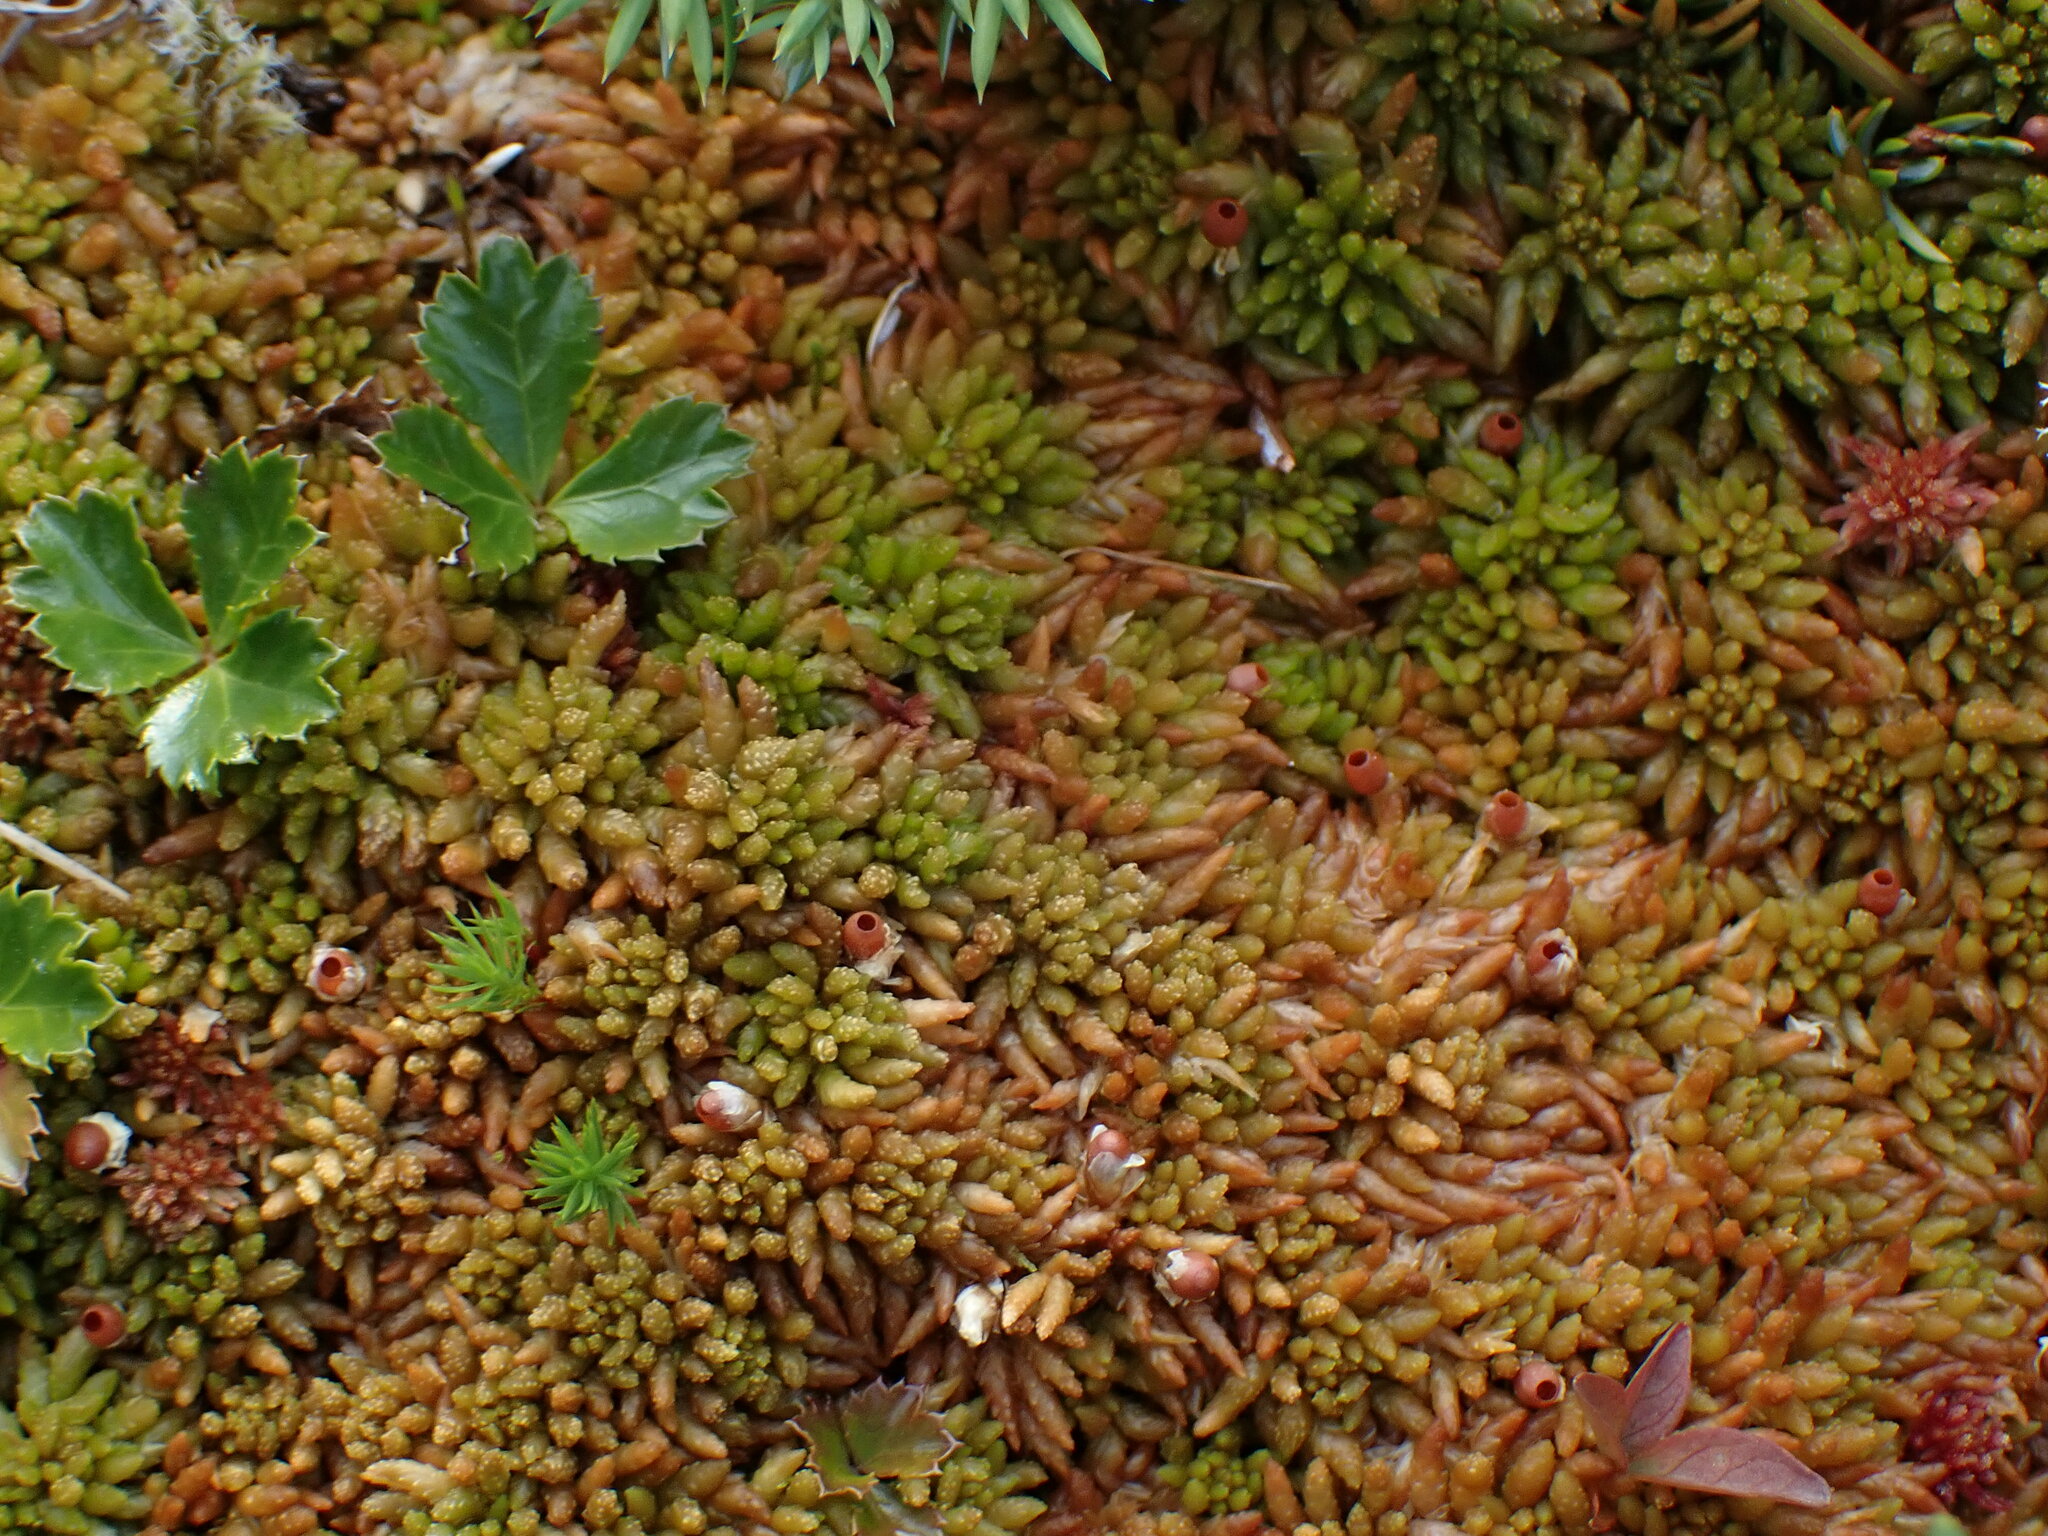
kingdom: Plantae
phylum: Bryophyta
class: Sphagnopsida
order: Sphagnales
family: Sphagnaceae
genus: Sphagnum
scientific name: Sphagnum austinii
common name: Austin's peat moss
